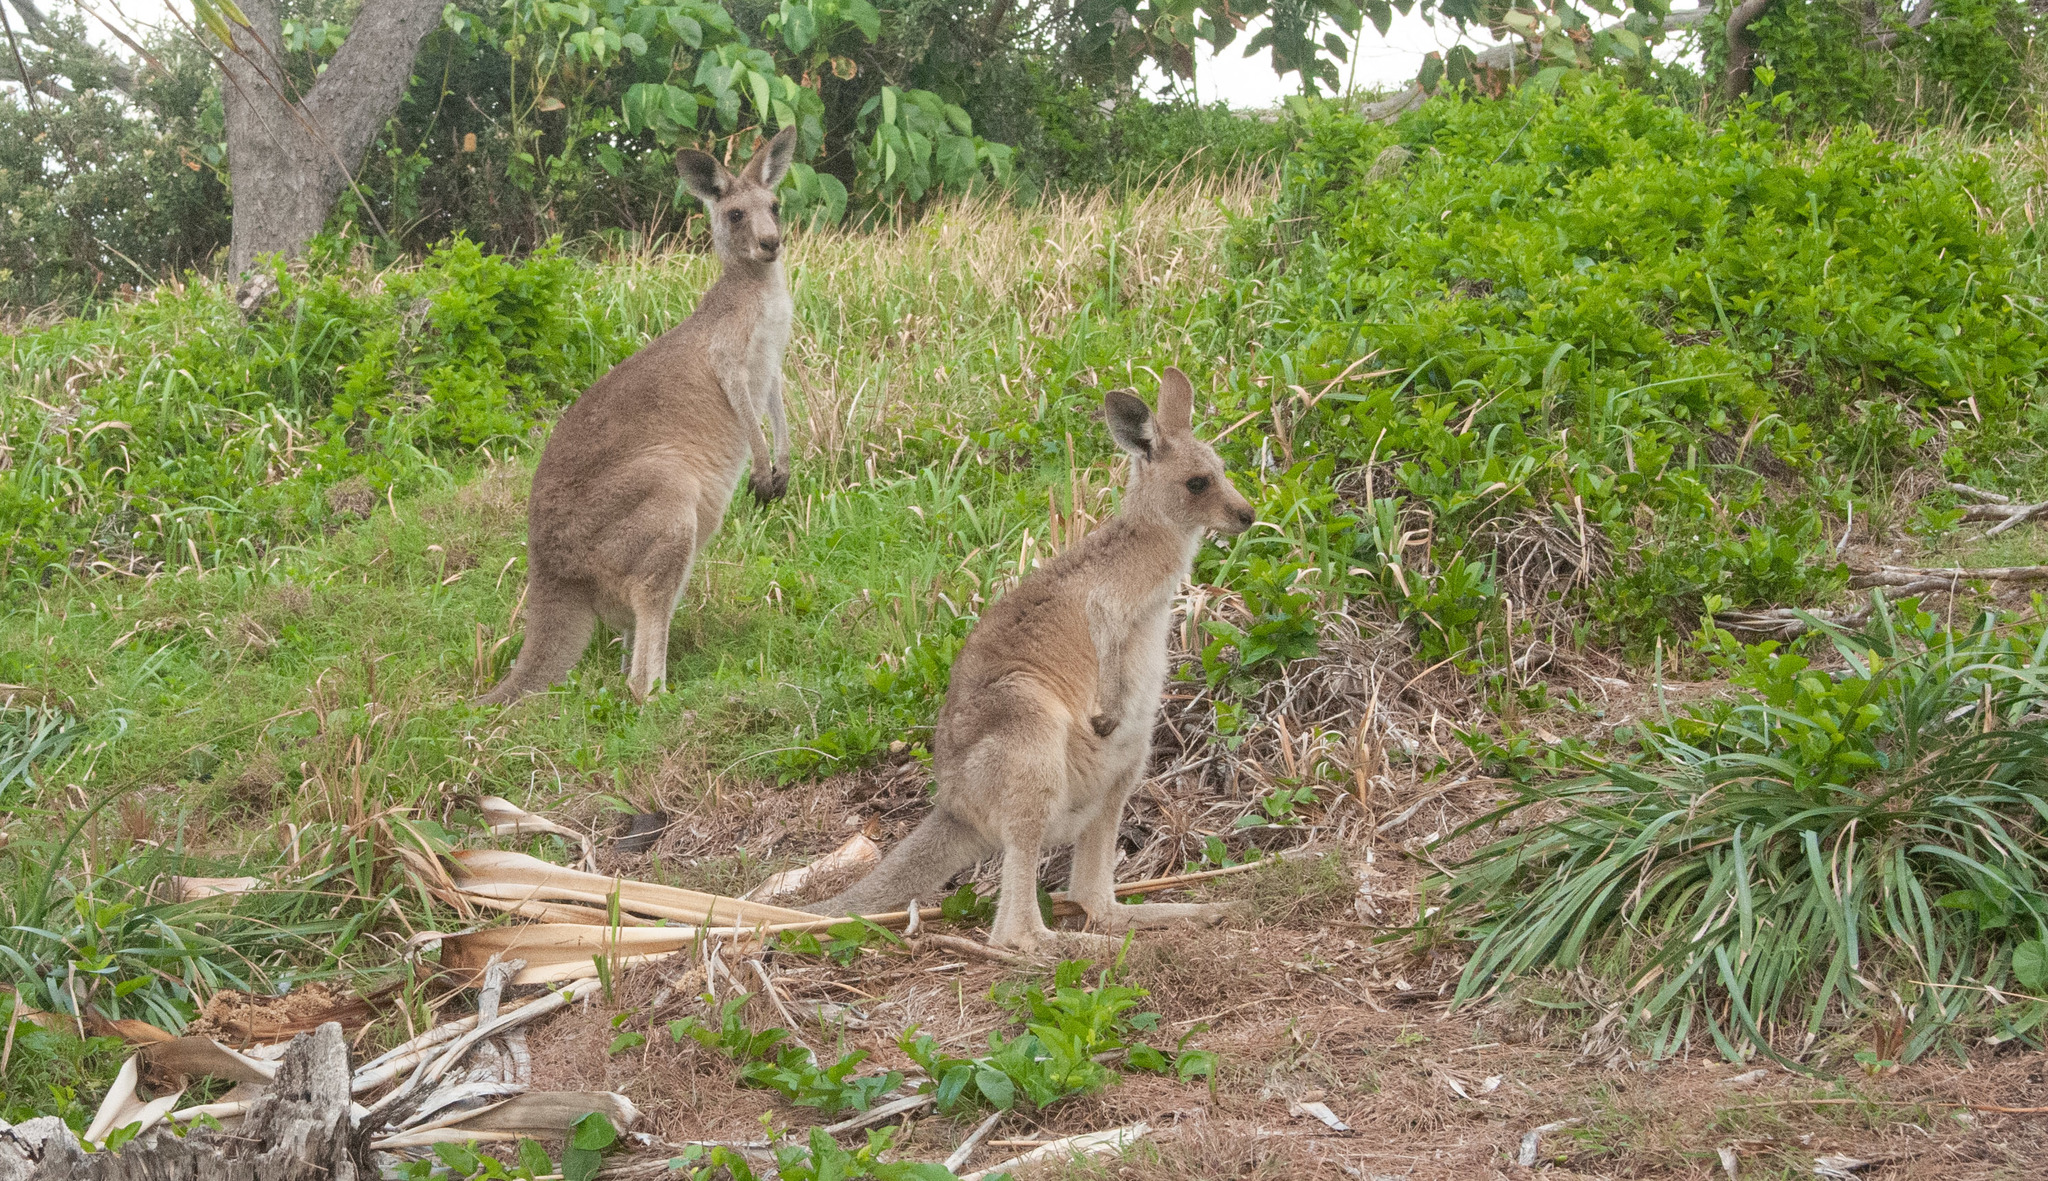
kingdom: Animalia
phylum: Chordata
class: Mammalia
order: Diprotodontia
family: Macropodidae
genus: Macropus
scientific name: Macropus giganteus
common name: Eastern grey kangaroo
